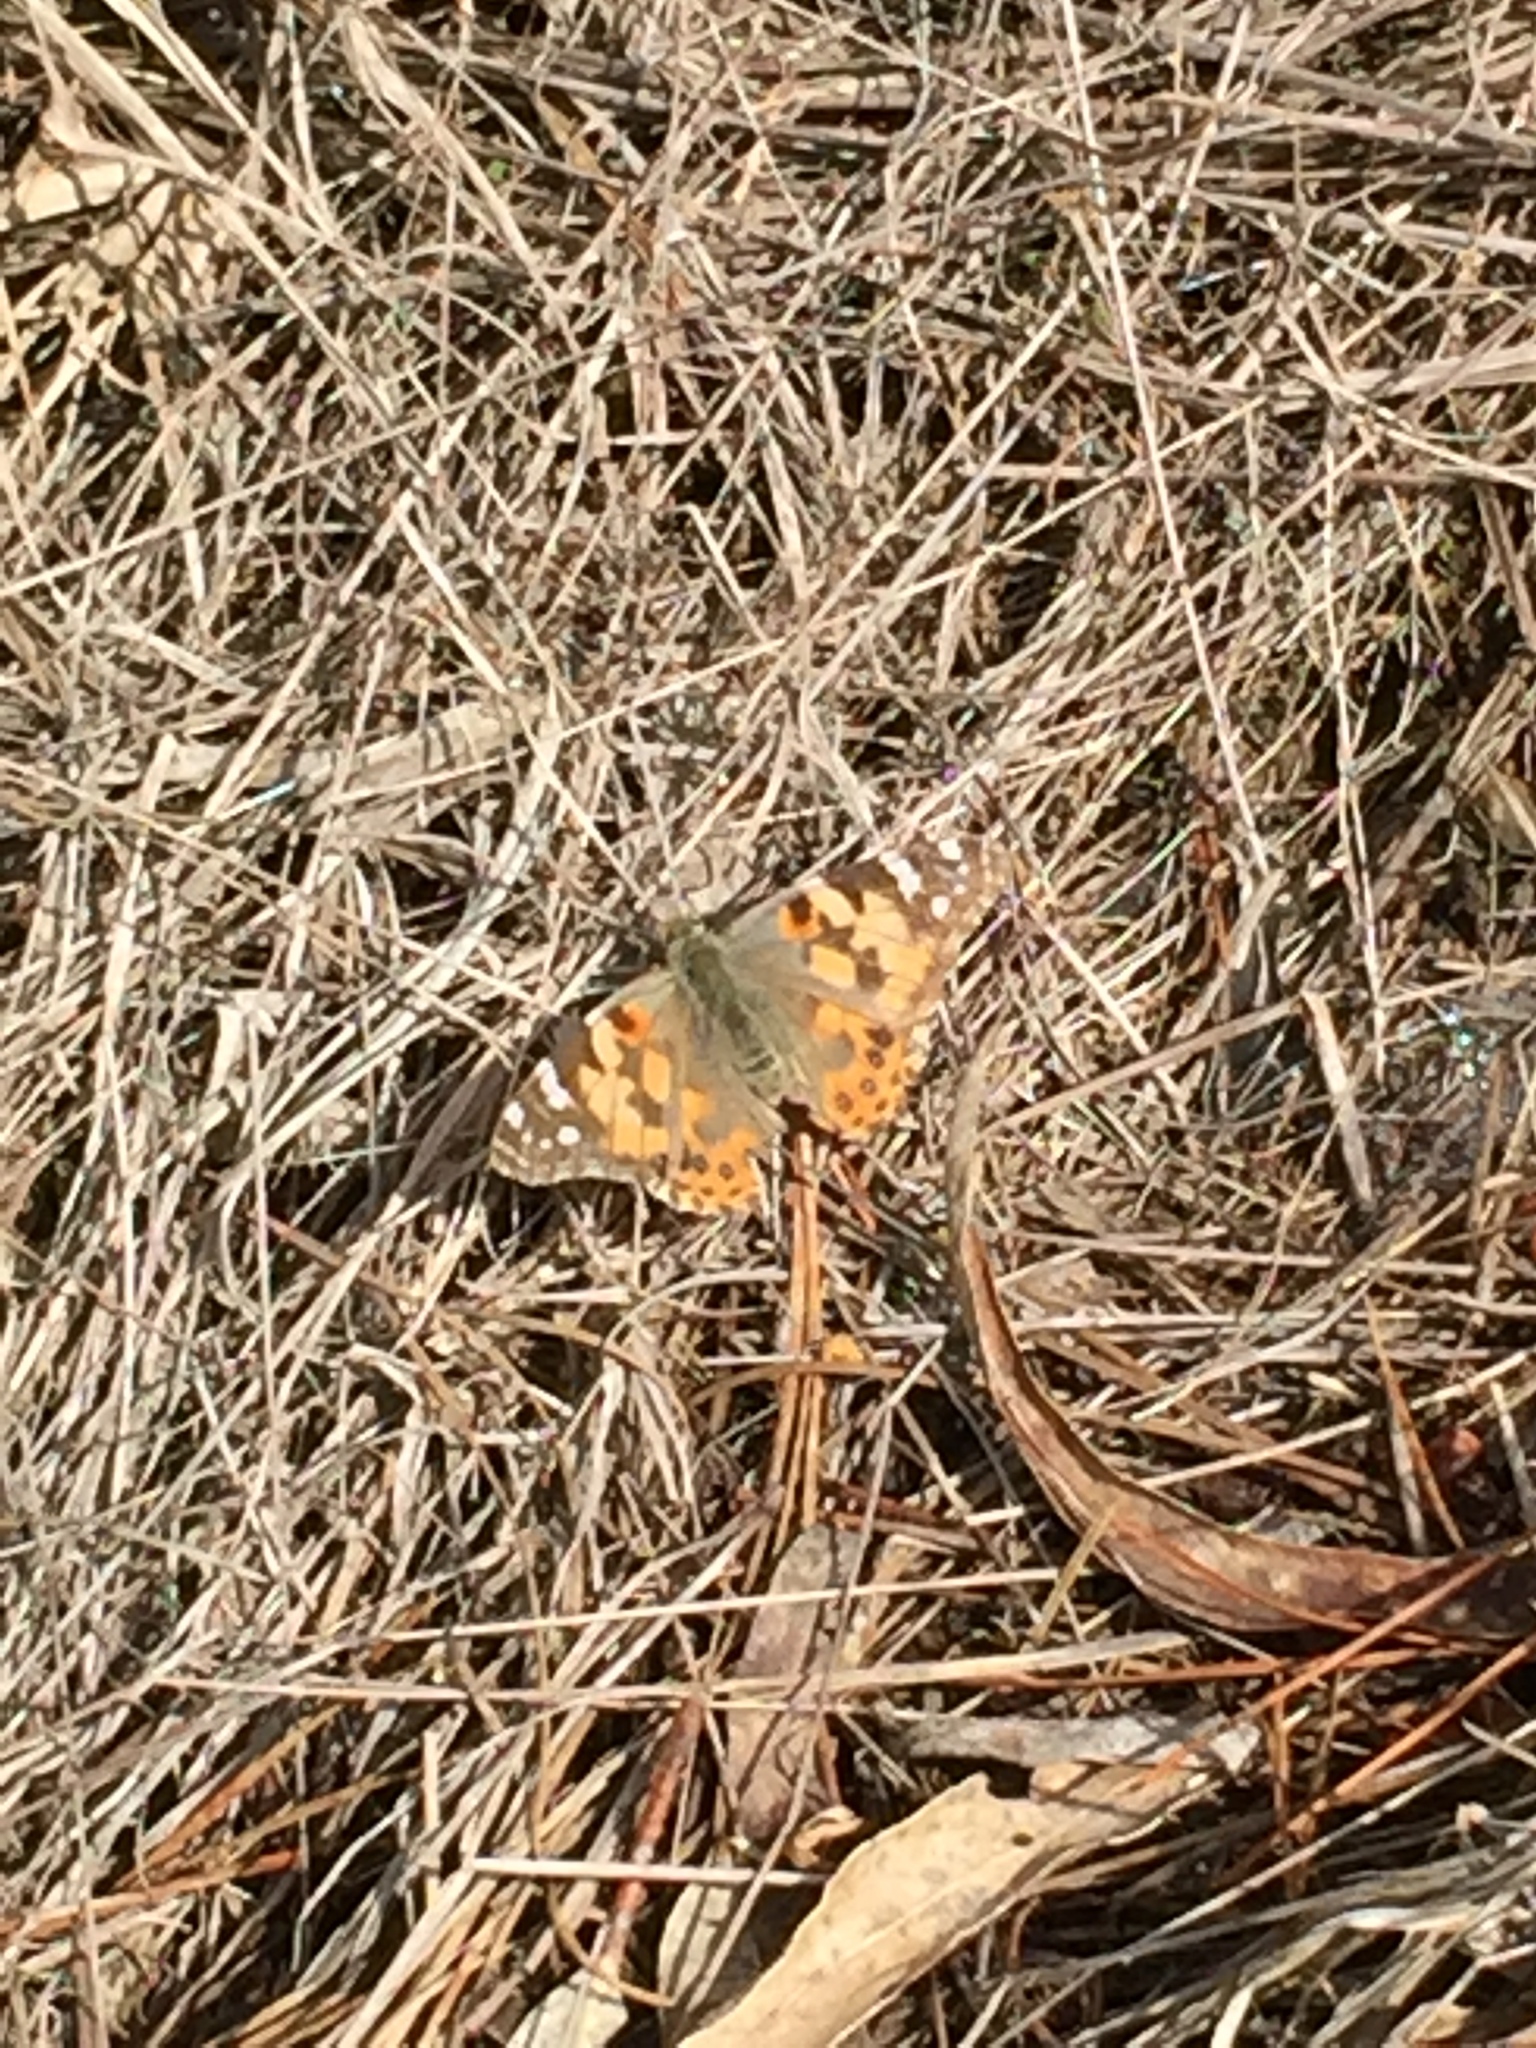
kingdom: Animalia
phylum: Arthropoda
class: Insecta
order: Lepidoptera
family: Nymphalidae
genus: Vanessa
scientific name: Vanessa cardui
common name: Painted lady
